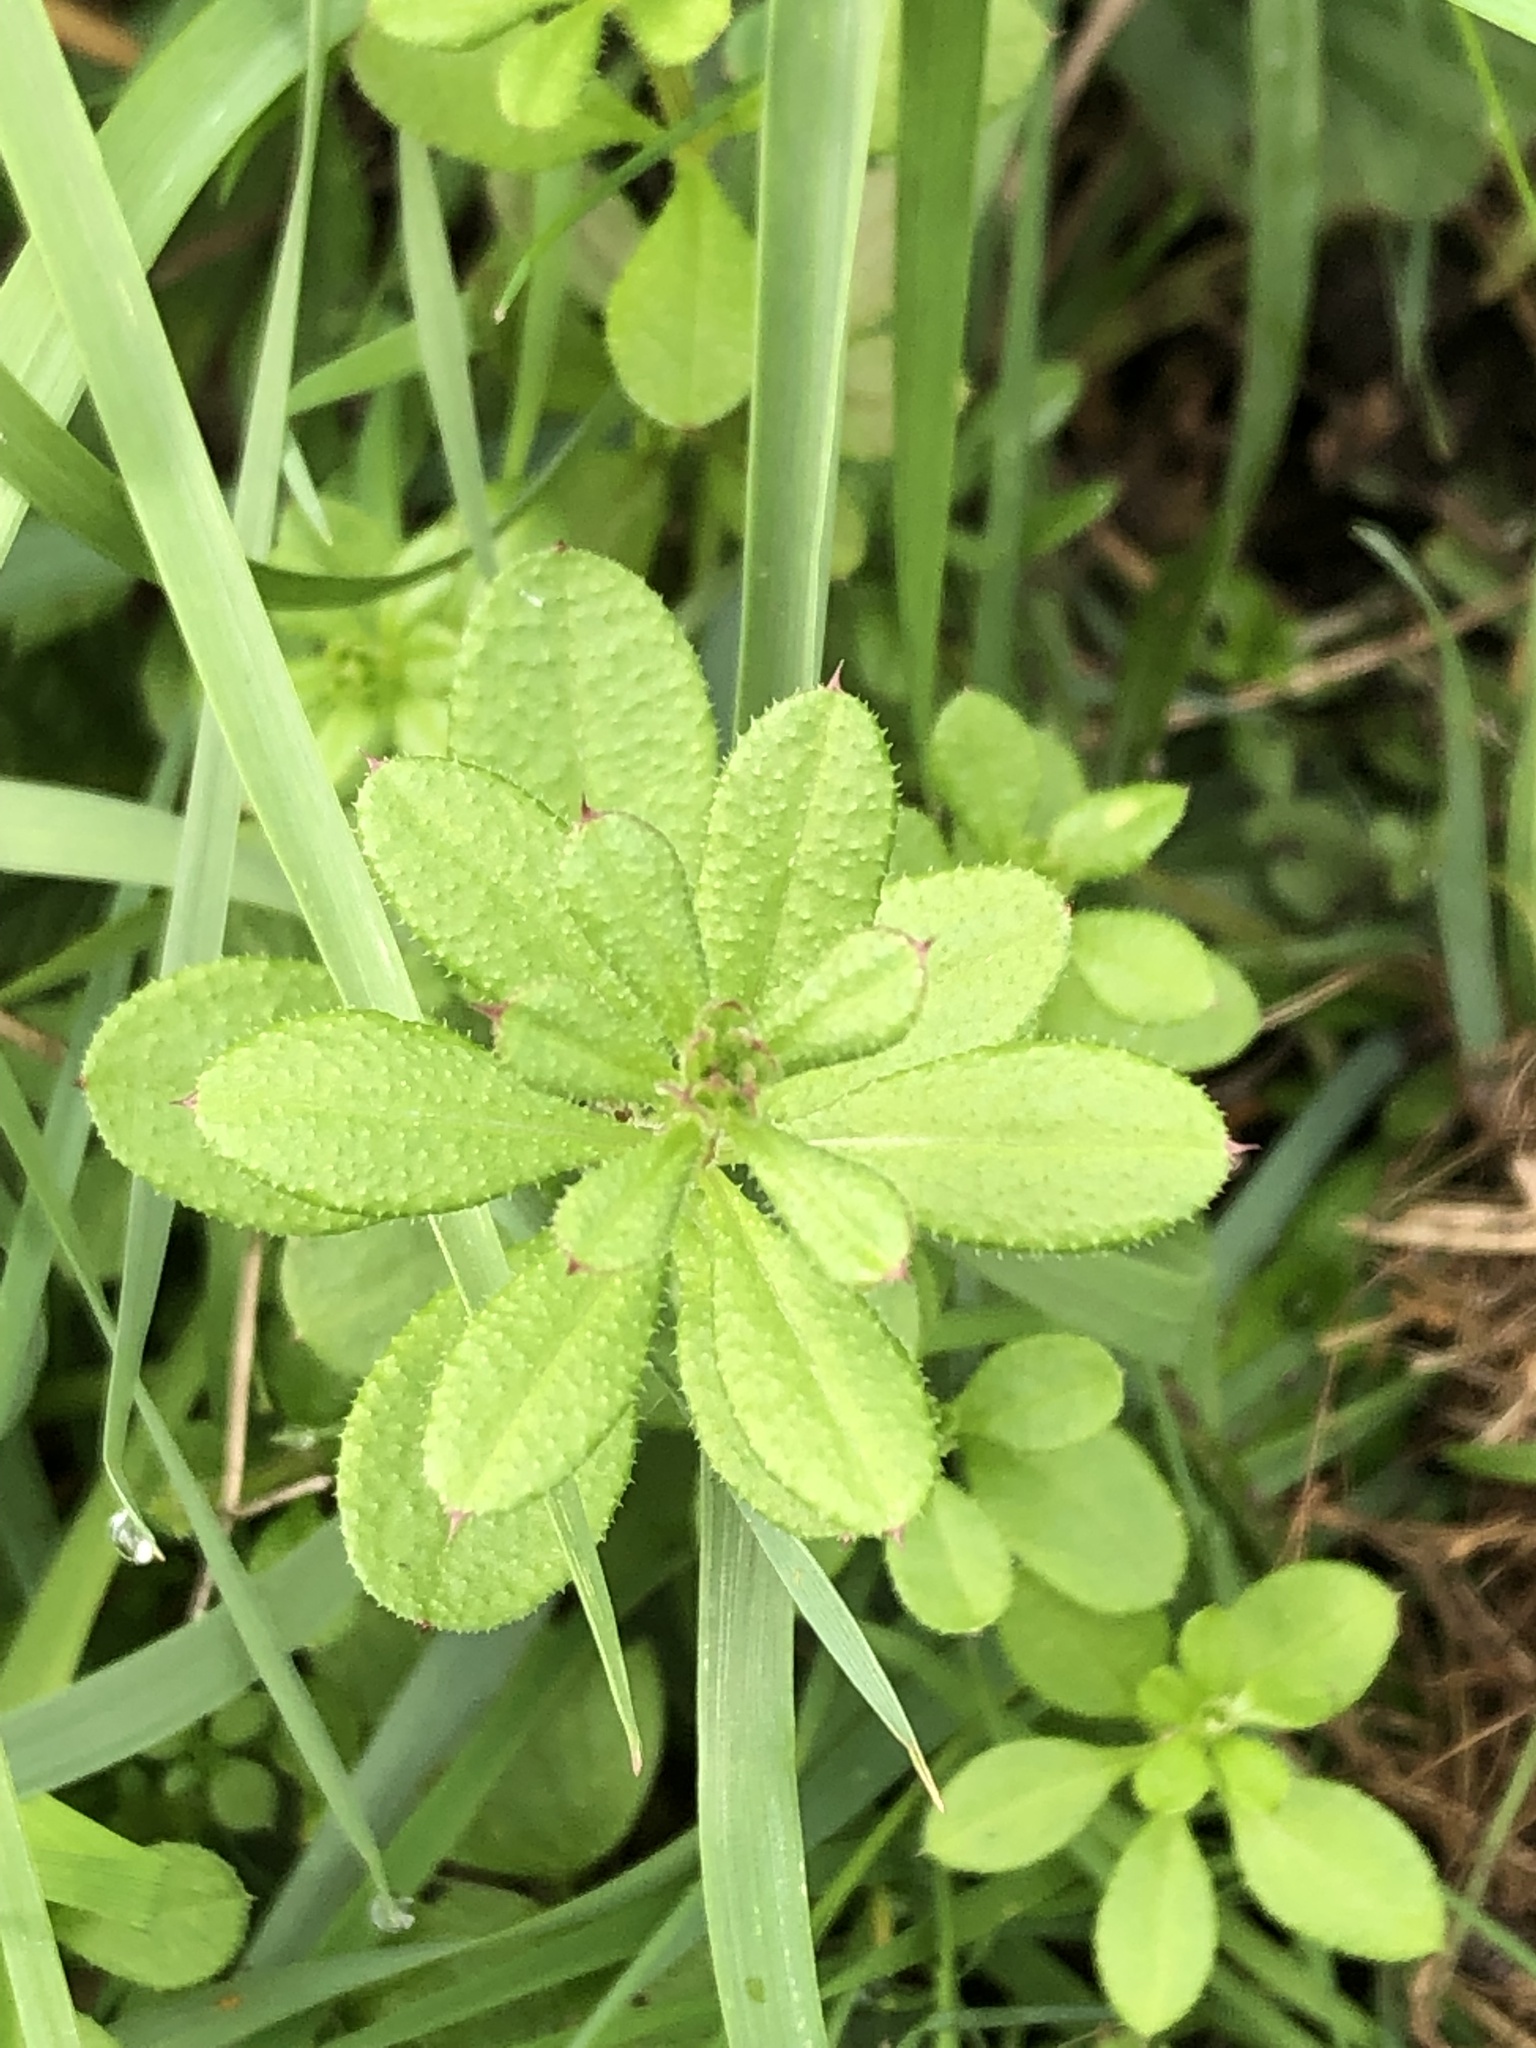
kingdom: Plantae
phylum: Tracheophyta
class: Magnoliopsida
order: Gentianales
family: Rubiaceae
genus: Galium
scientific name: Galium aparine
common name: Cleavers
